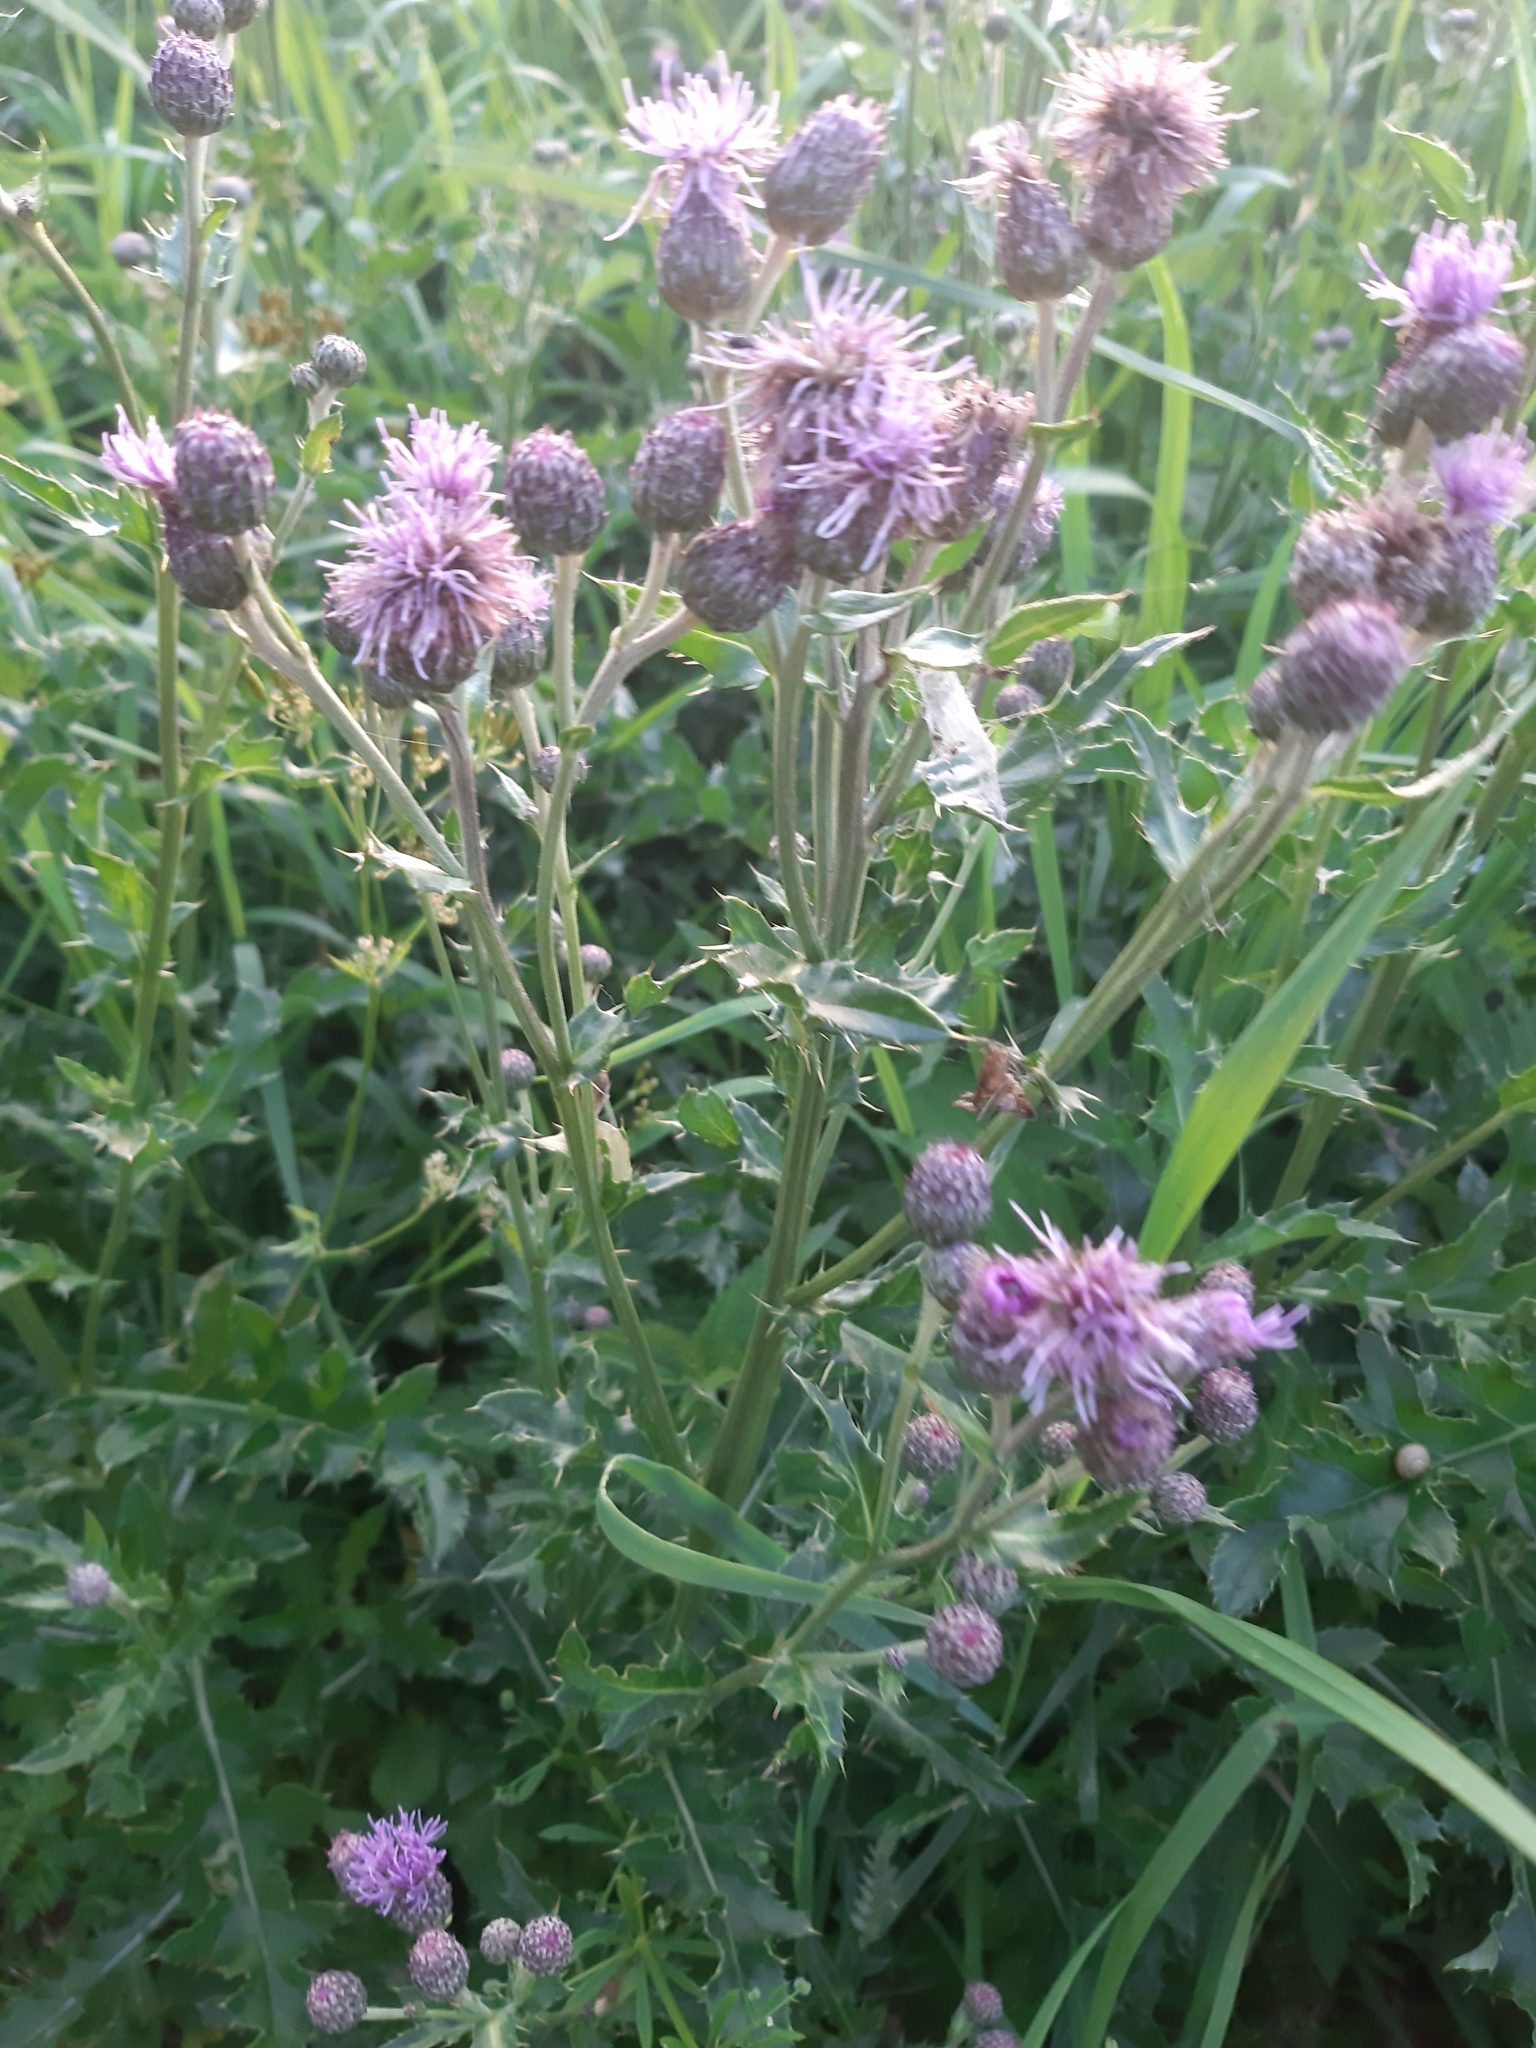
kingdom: Plantae
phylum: Tracheophyta
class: Magnoliopsida
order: Asterales
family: Asteraceae
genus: Cirsium
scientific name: Cirsium arvense
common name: Creeping thistle
